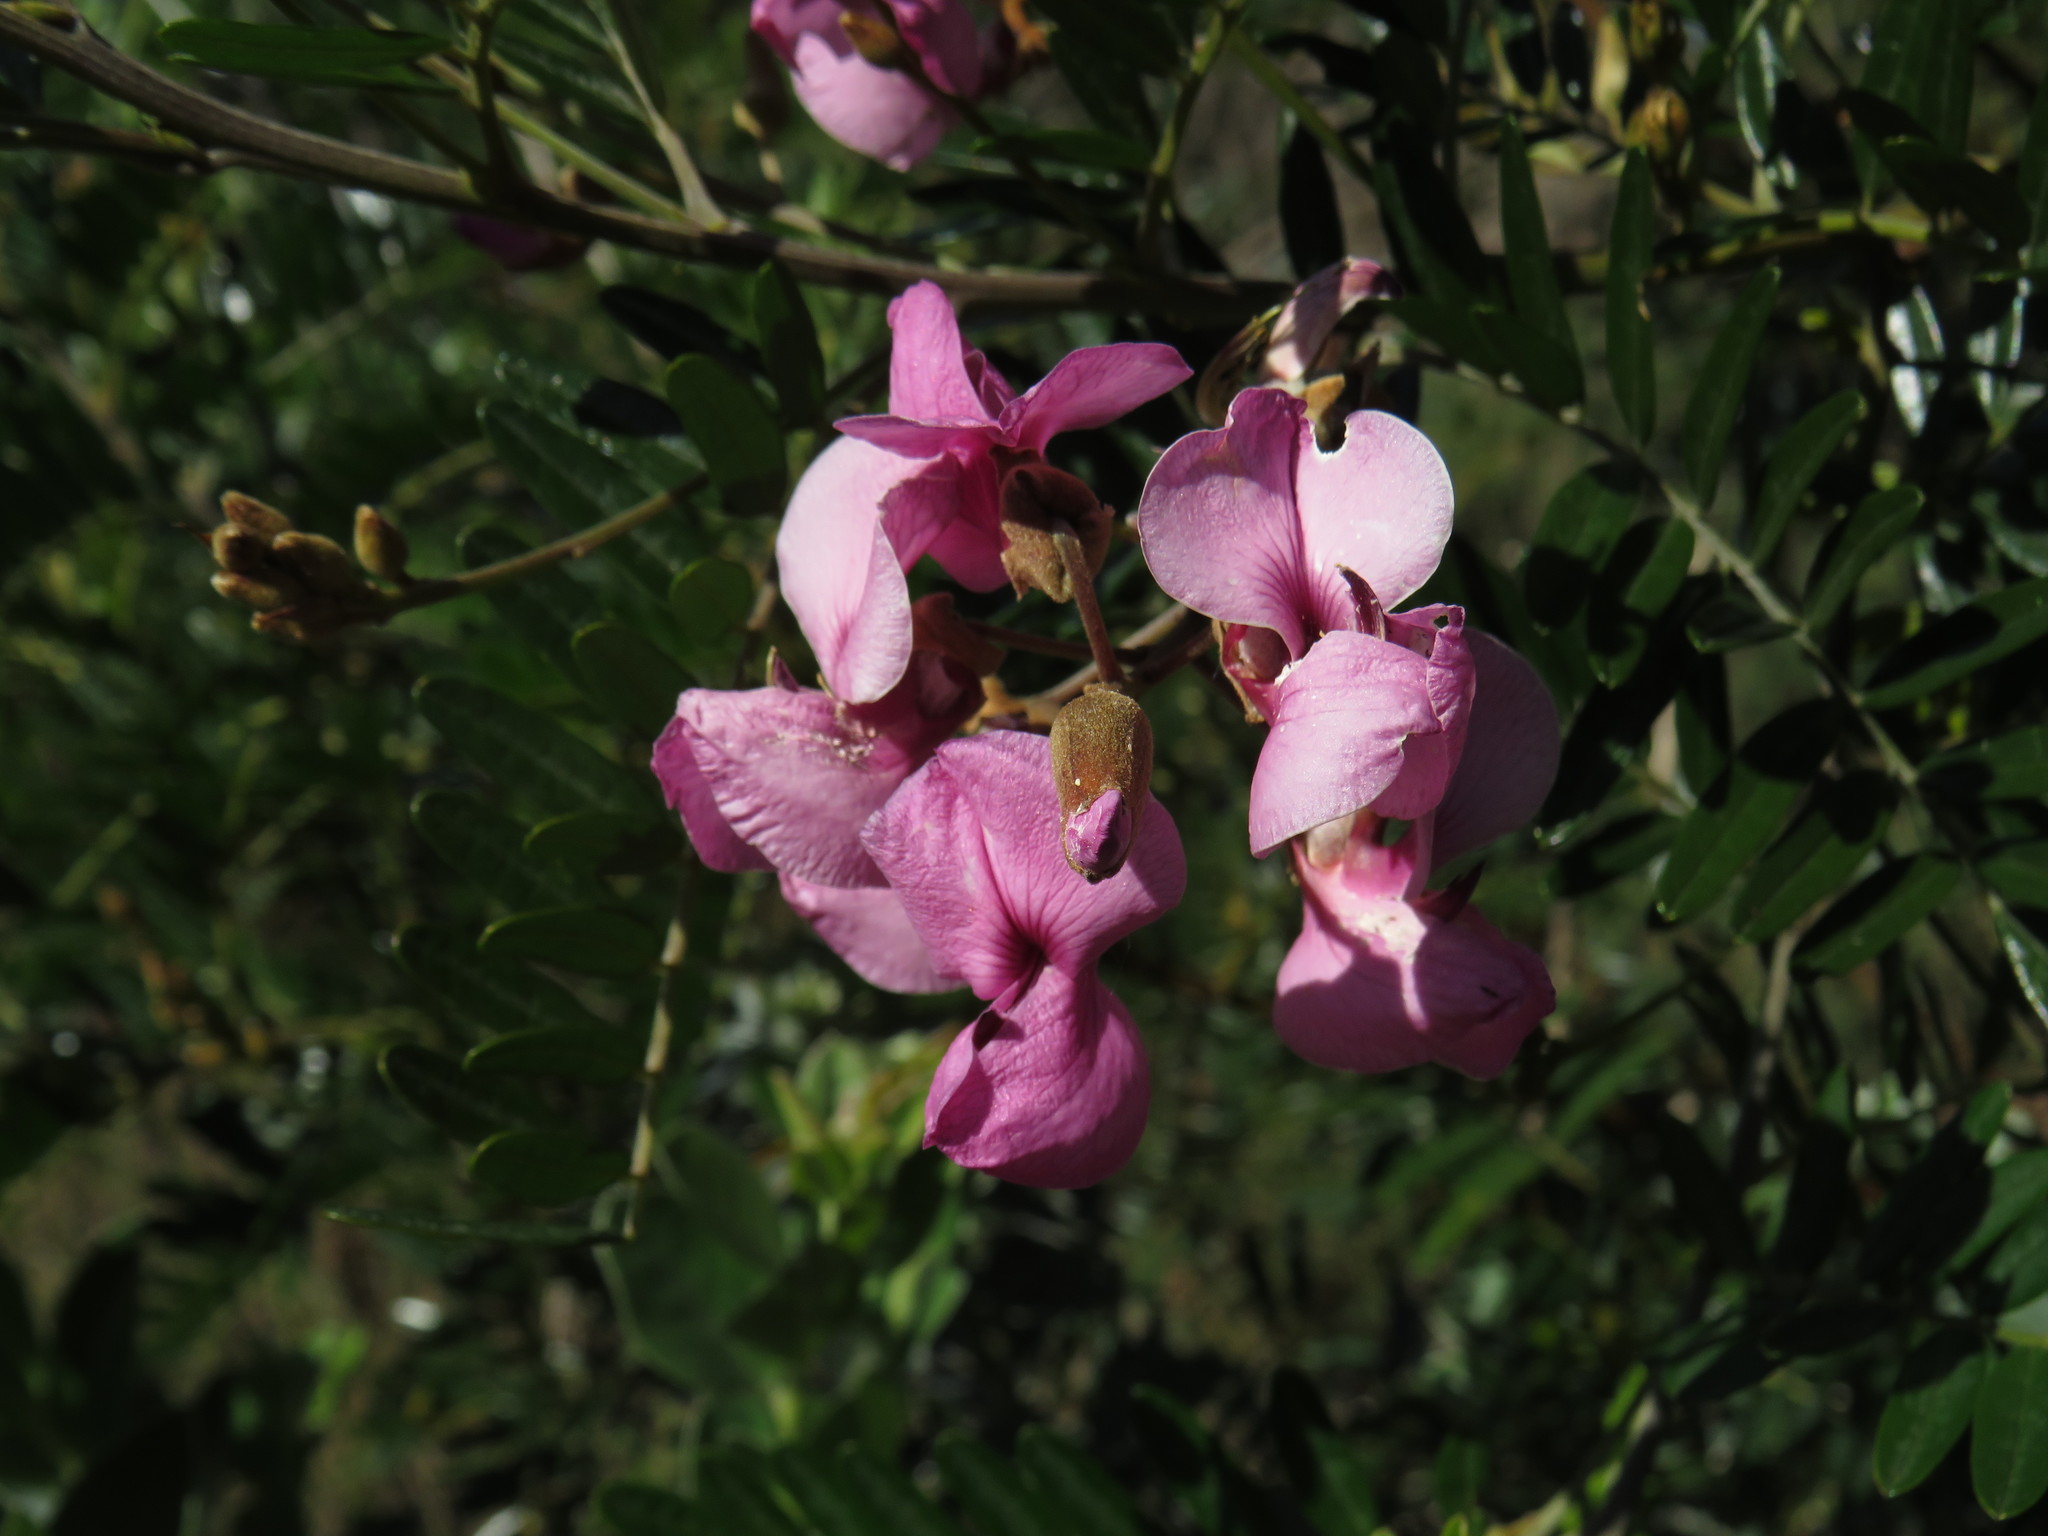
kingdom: Plantae
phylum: Tracheophyta
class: Magnoliopsida
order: Fabales
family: Fabaceae
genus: Virgilia
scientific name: Virgilia oroboides
